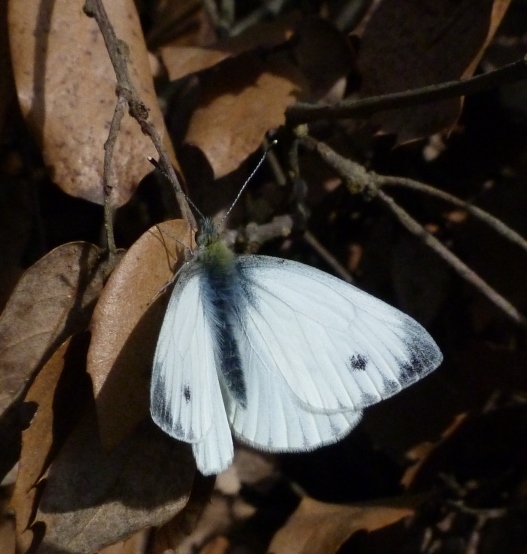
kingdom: Animalia
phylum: Arthropoda
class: Insecta
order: Lepidoptera
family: Pieridae
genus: Pieris
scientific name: Pieris napi
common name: Green-veined white
